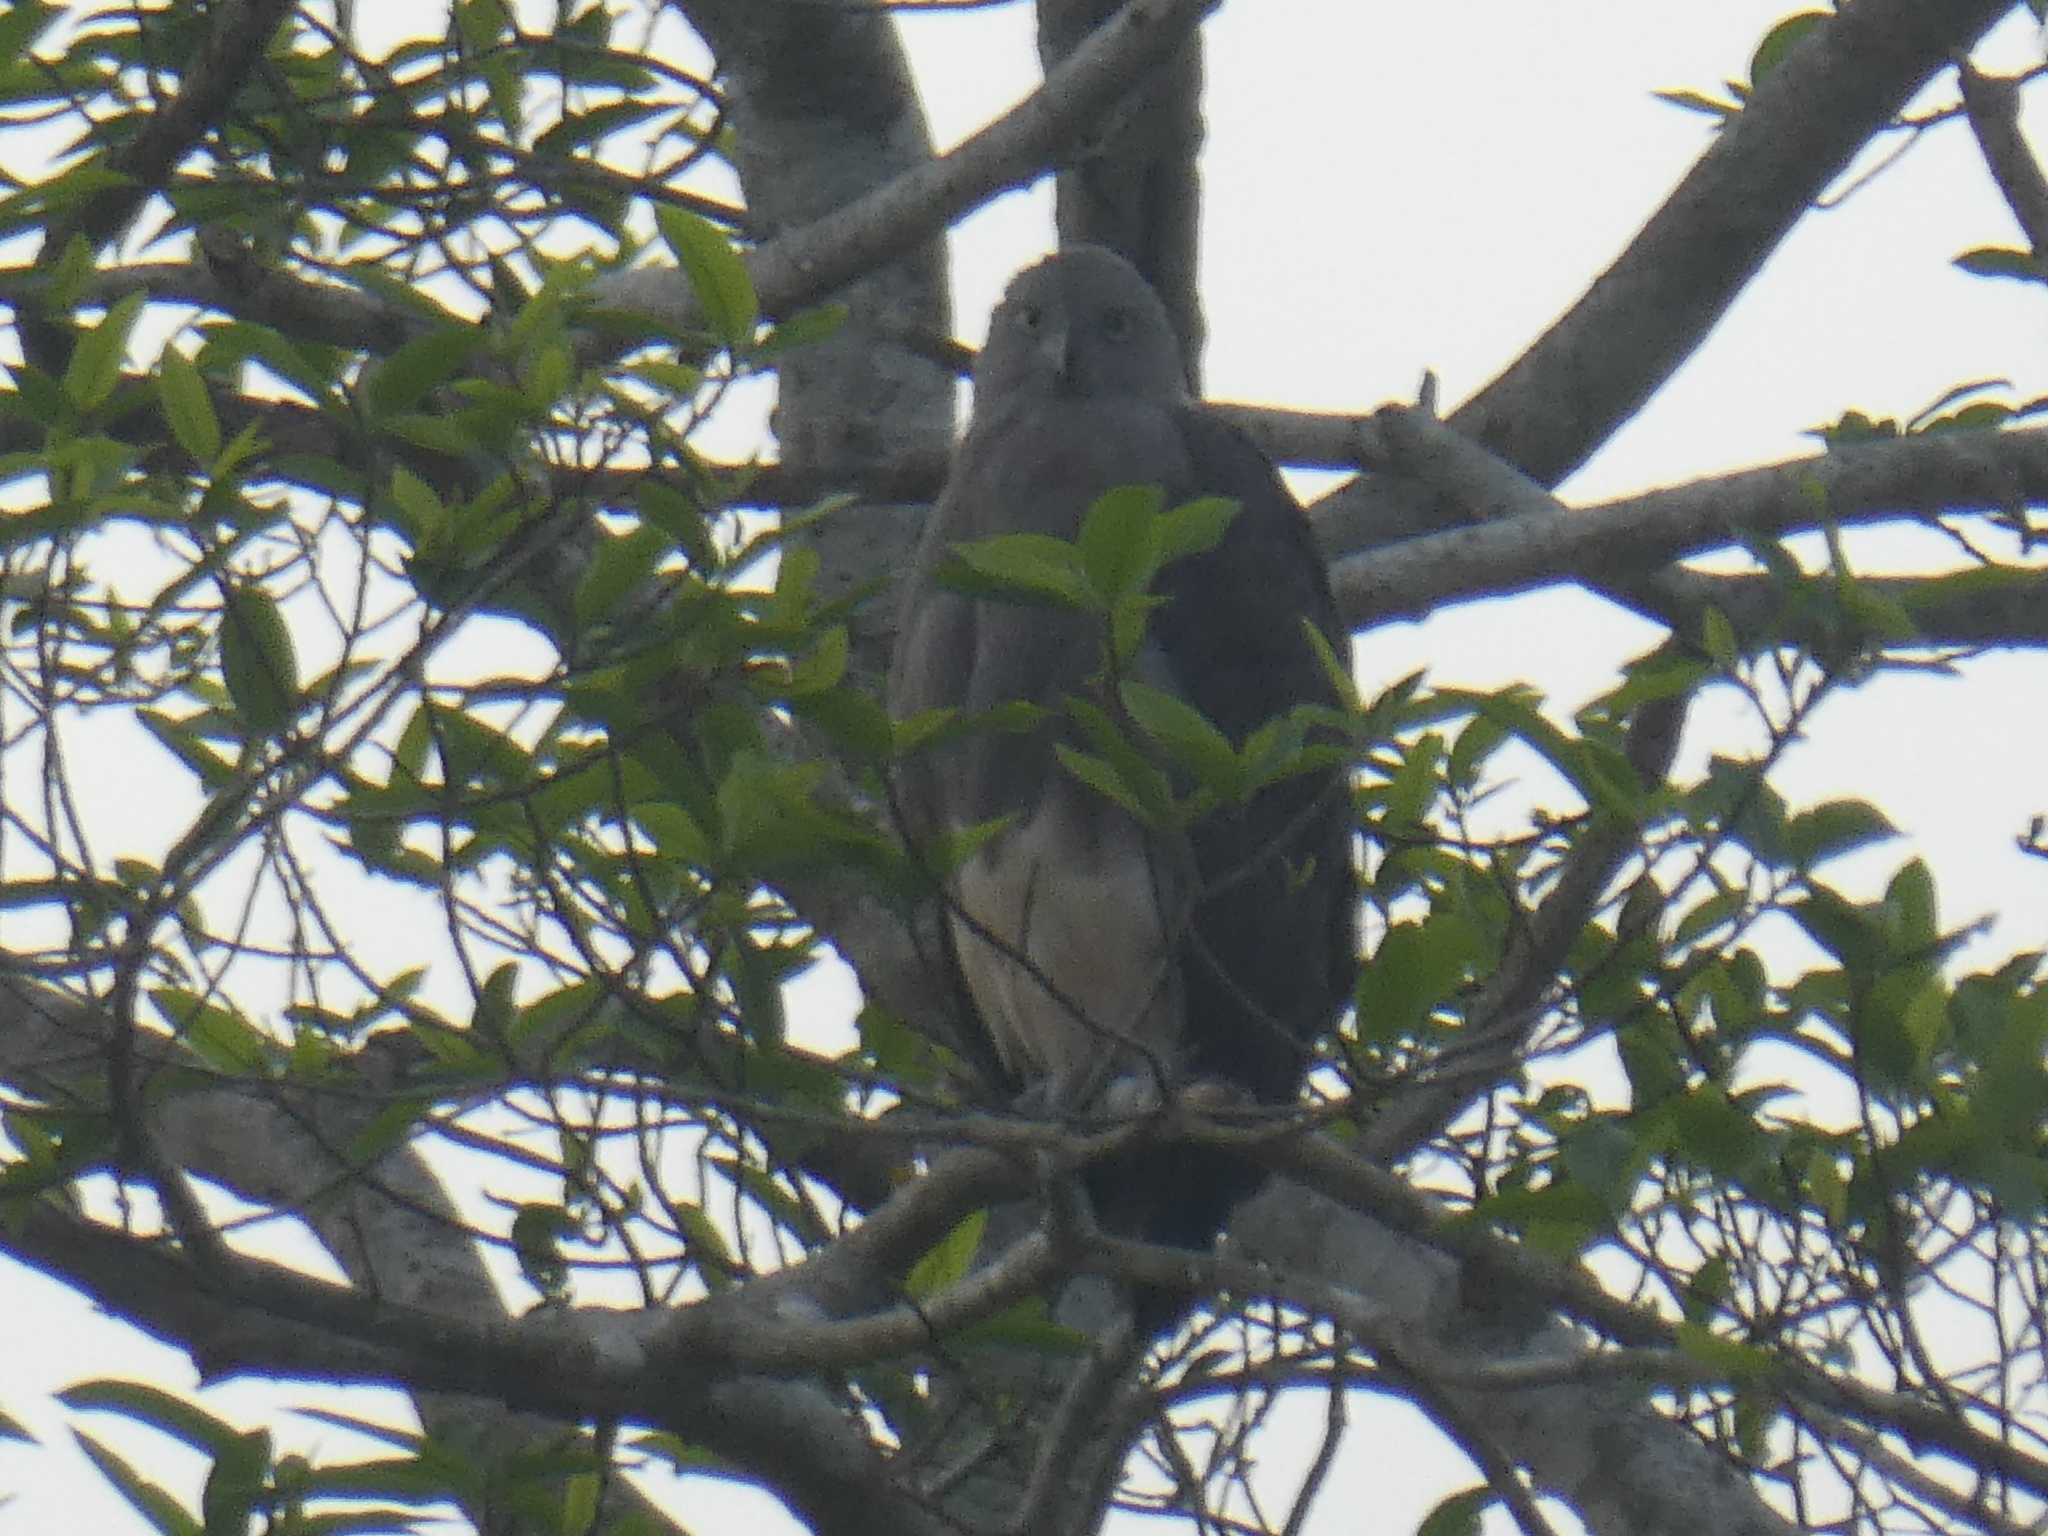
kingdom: Animalia
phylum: Chordata
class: Aves
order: Accipitriformes
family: Accipitridae
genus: Icthyophaga
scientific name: Icthyophaga humilis
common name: Lesser fish-eagle
